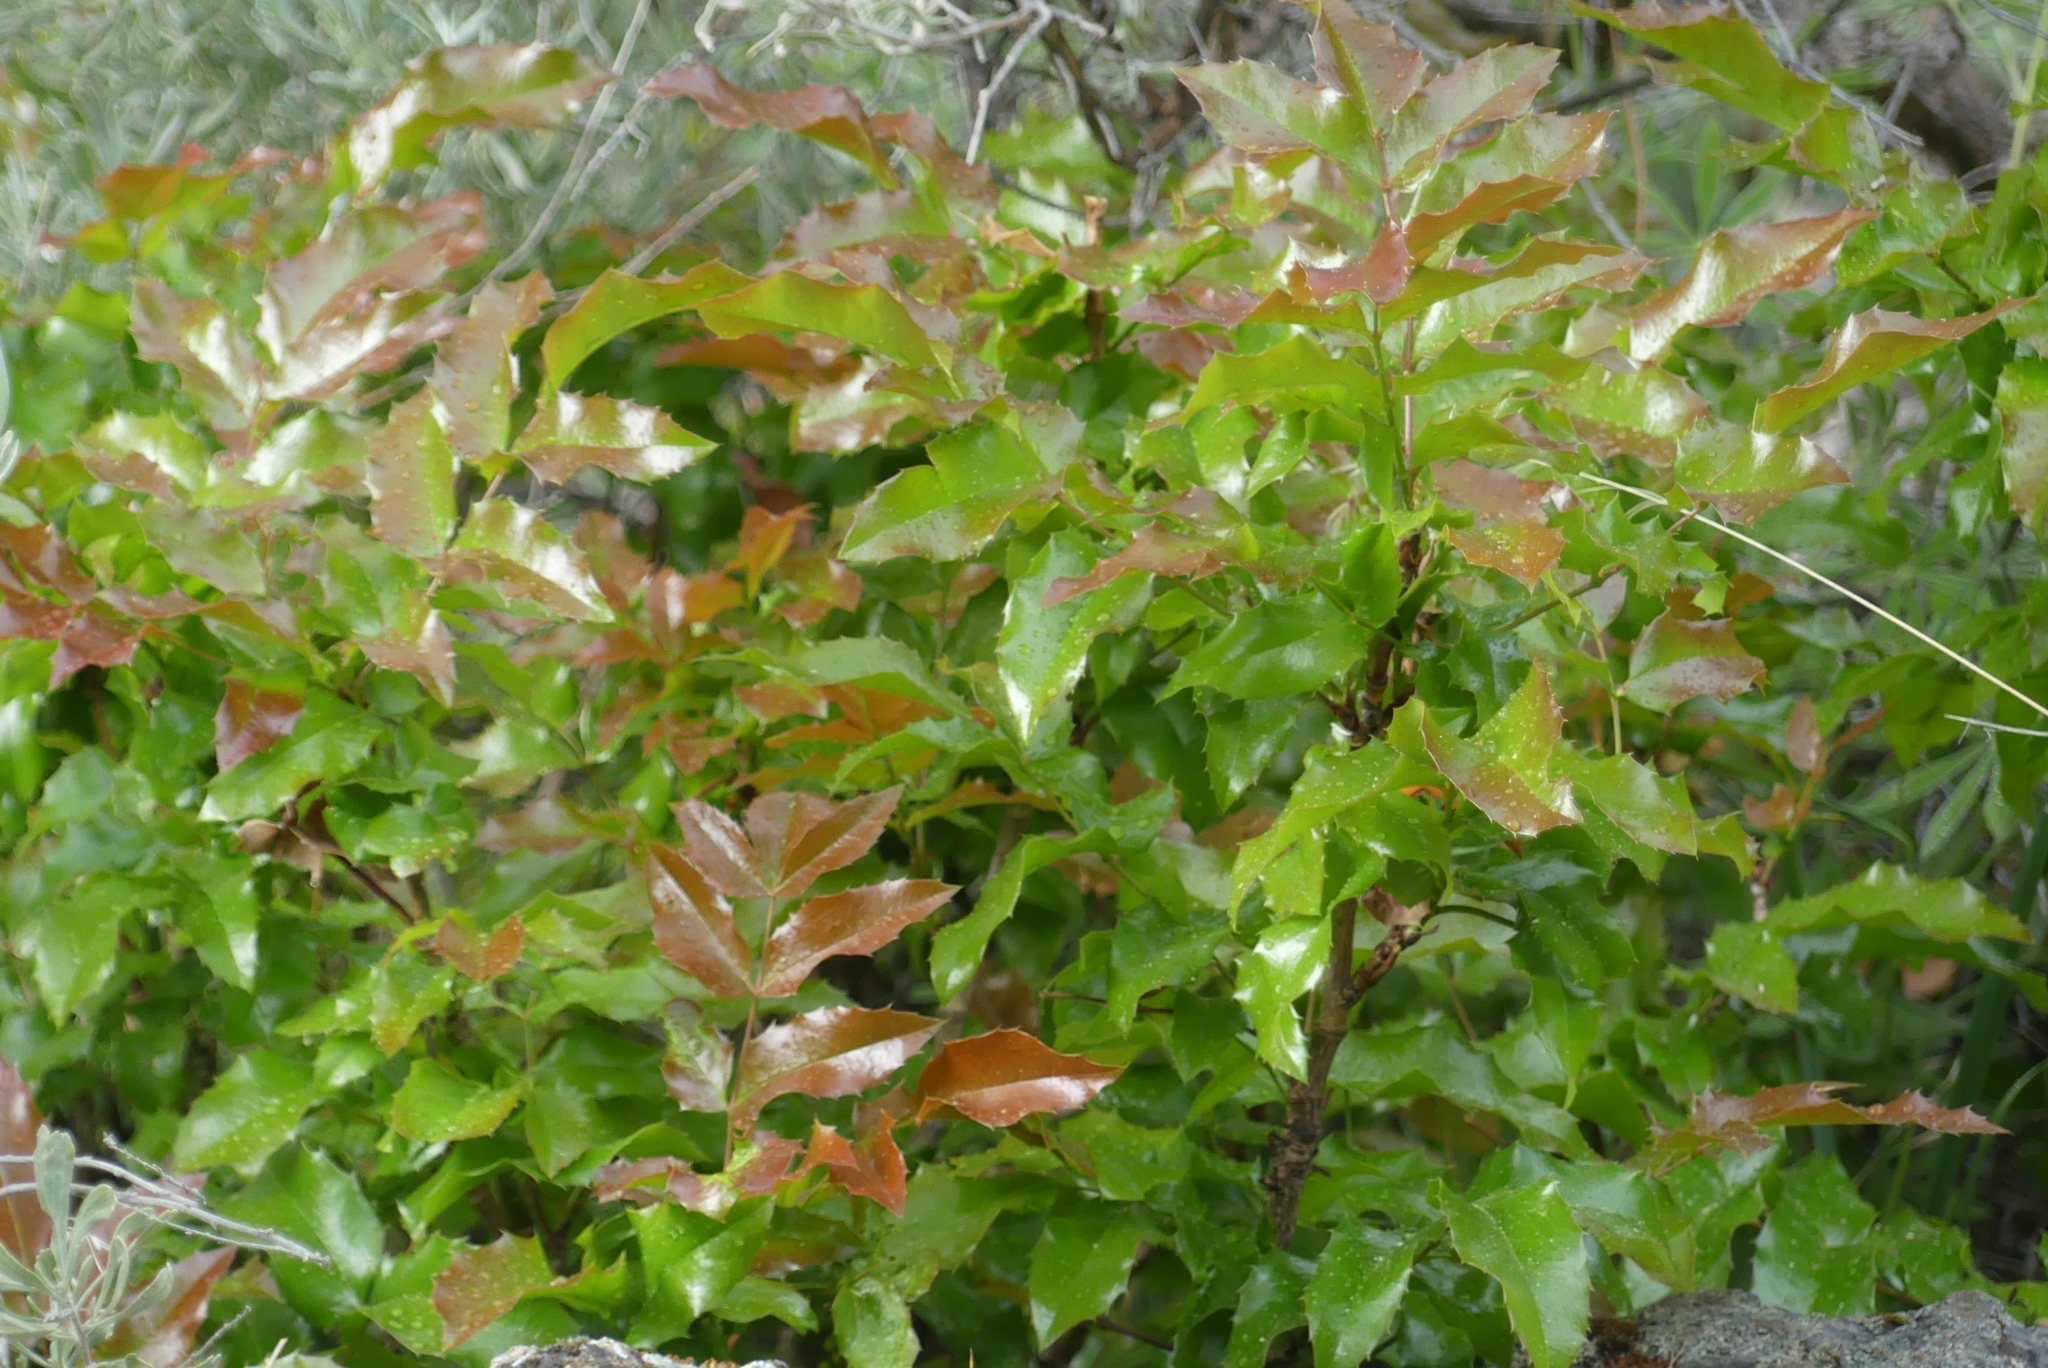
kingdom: Plantae
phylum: Tracheophyta
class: Magnoliopsida
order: Ranunculales
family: Berberidaceae
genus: Mahonia
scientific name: Mahonia aquifolium
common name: Oregon-grape
